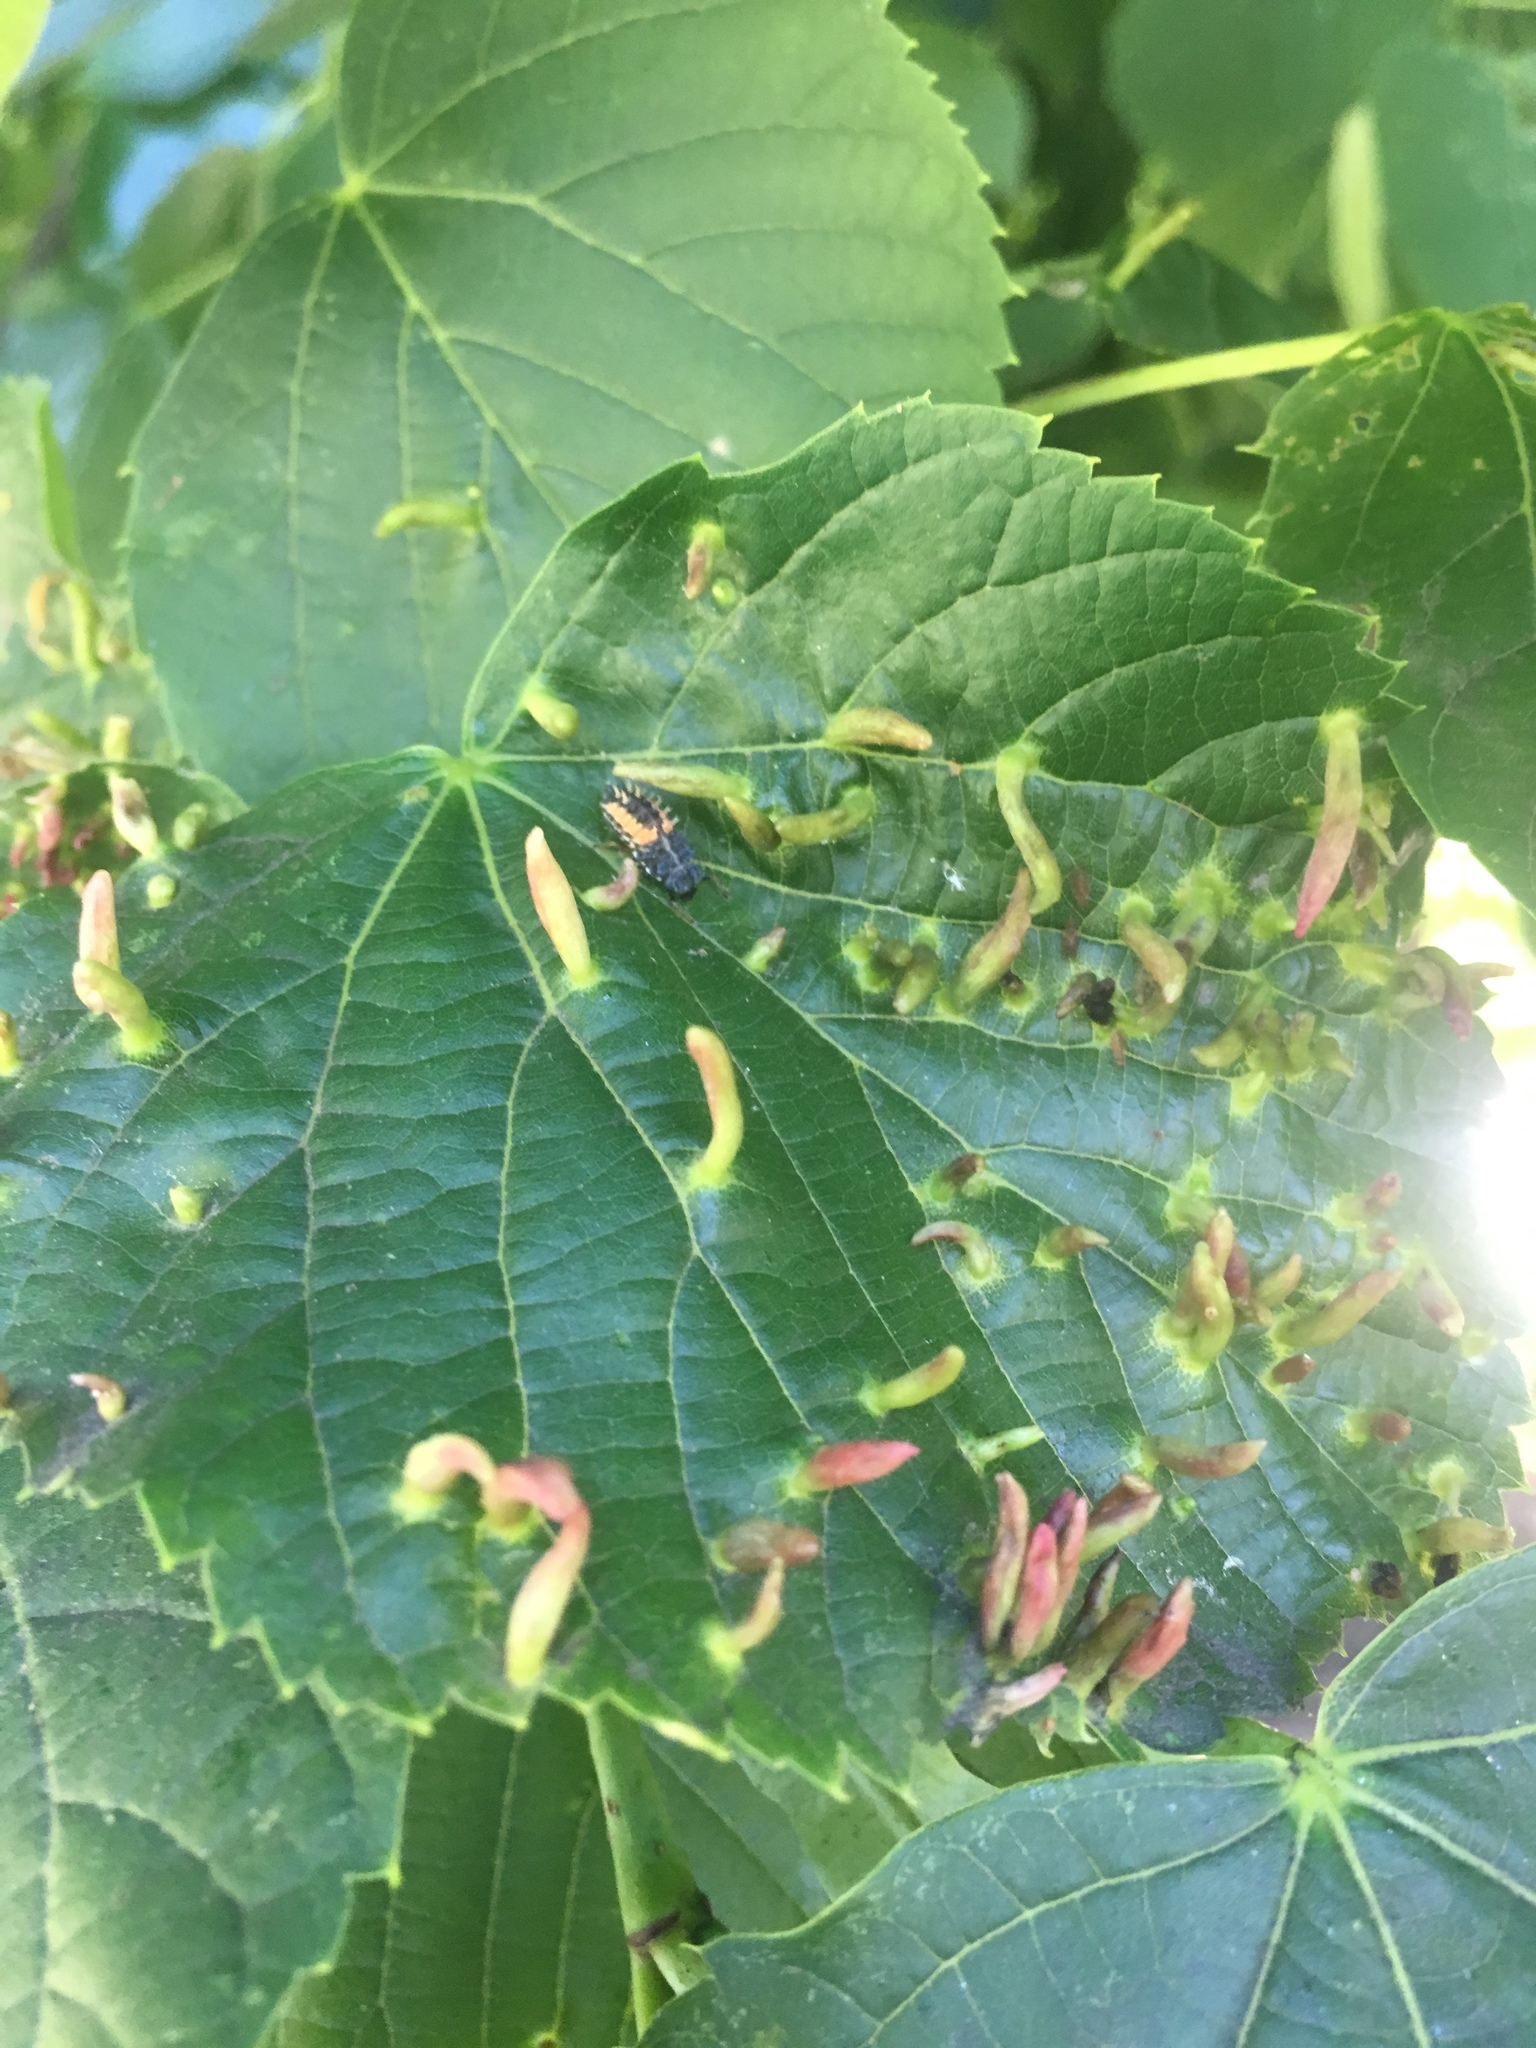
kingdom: Animalia
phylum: Arthropoda
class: Arachnida
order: Trombidiformes
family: Eriophyidae
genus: Eriophyes
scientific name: Eriophyes tiliae
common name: Red nail gall mite
